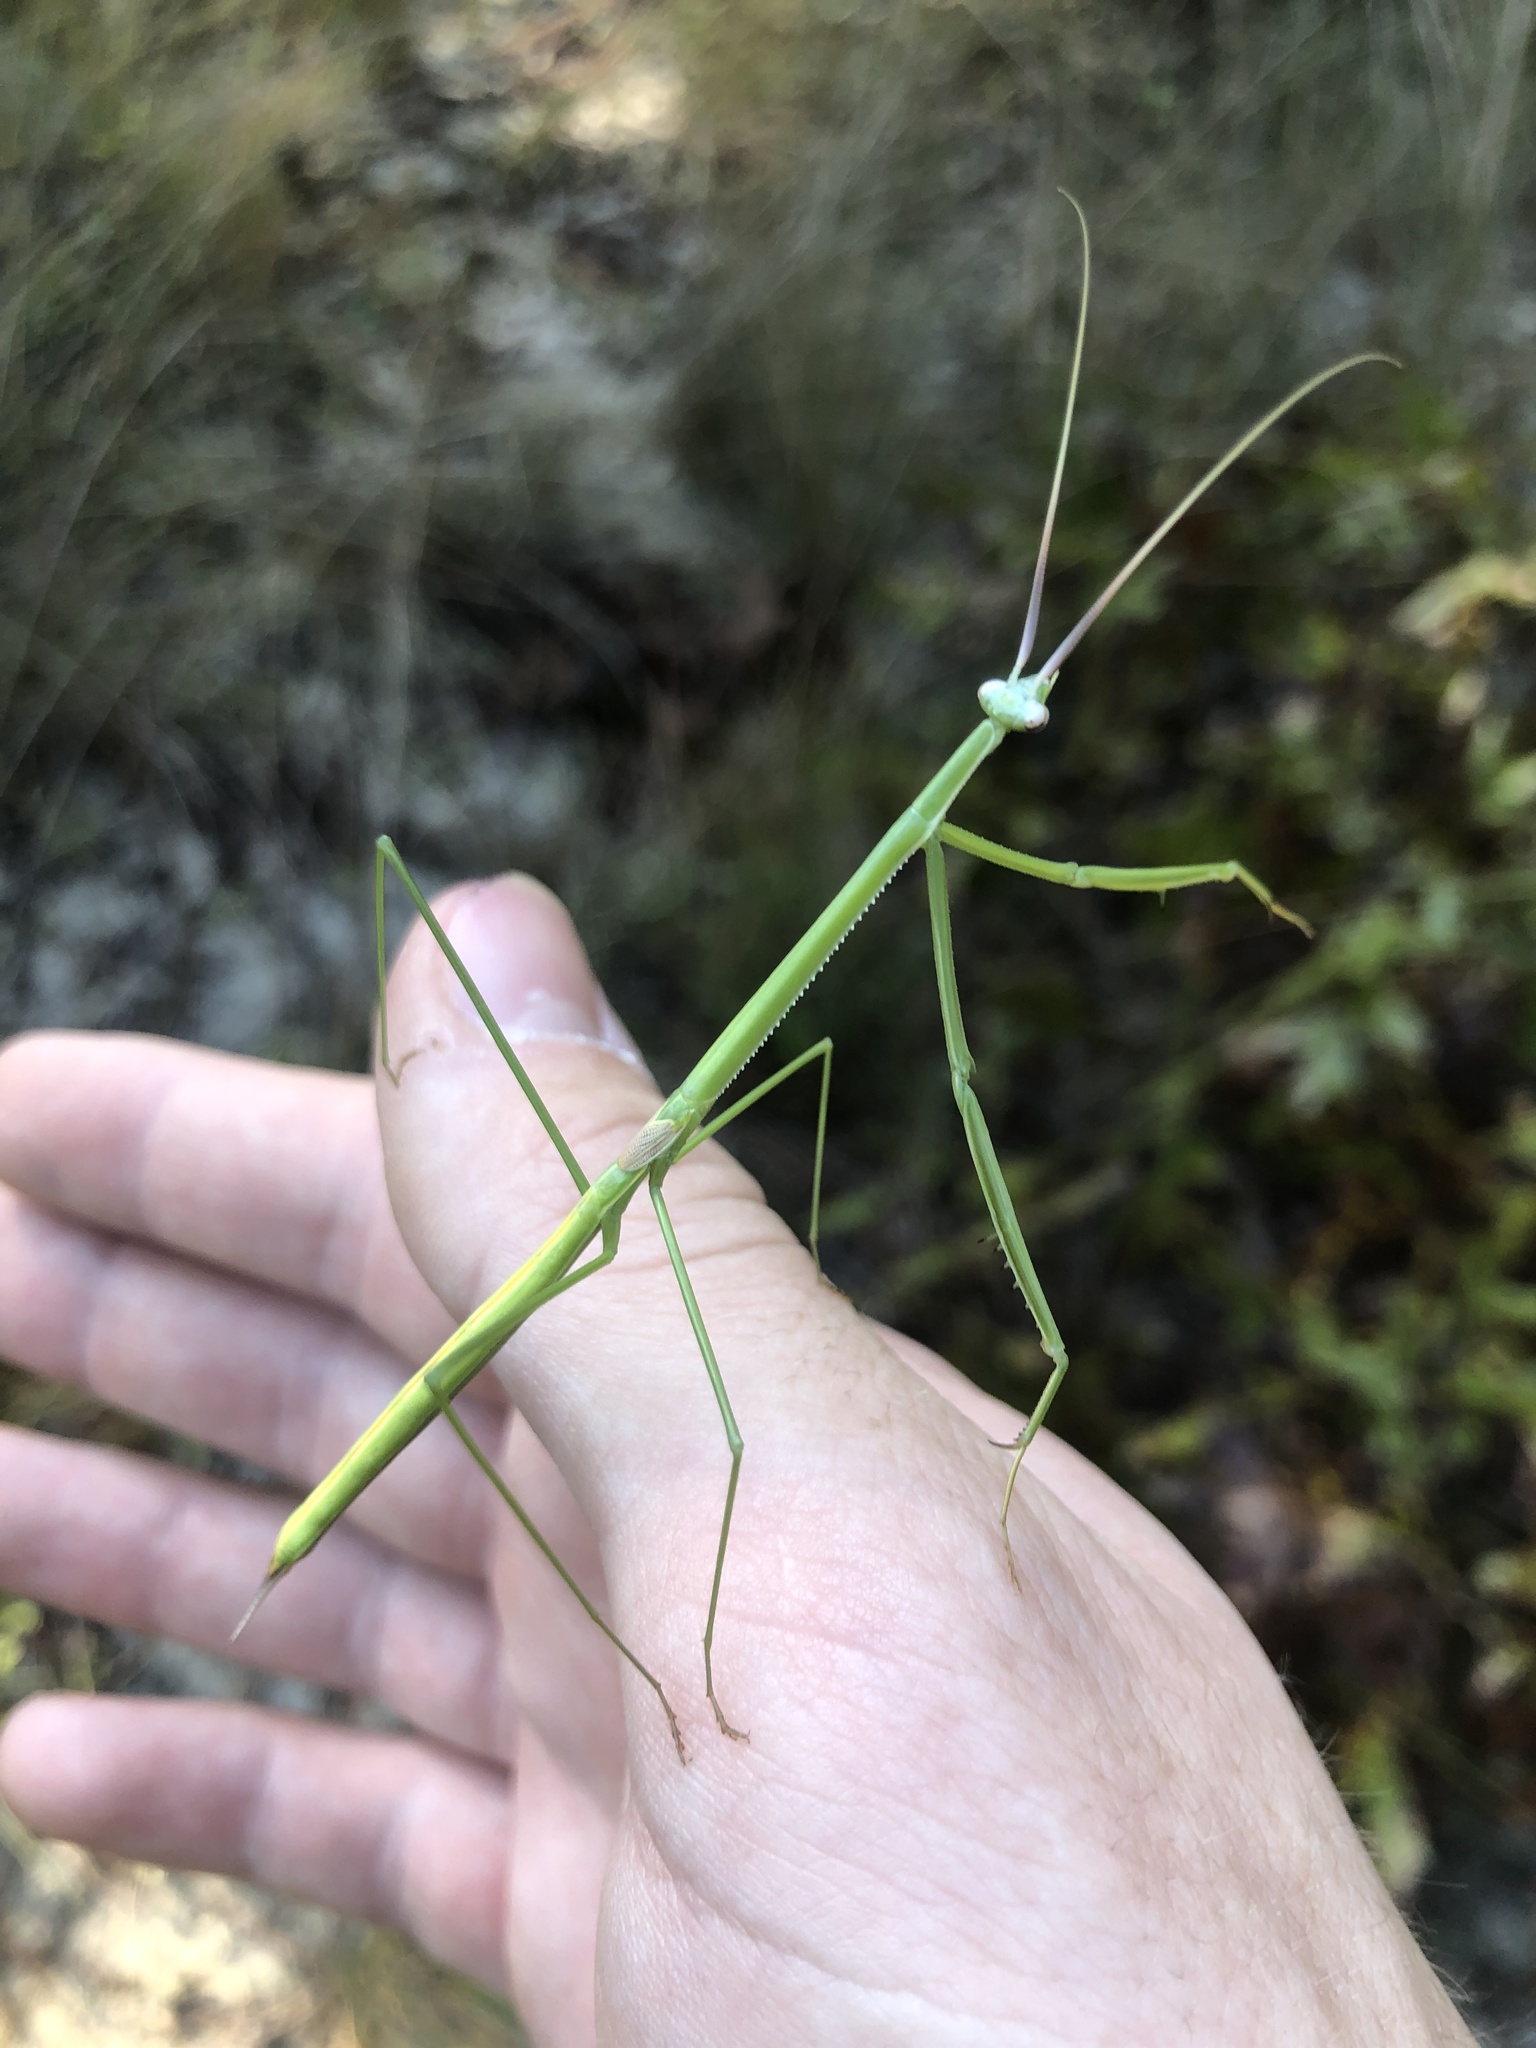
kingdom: Animalia
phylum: Arthropoda
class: Insecta
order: Mantodea
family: Coptopterygidae
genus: Brunneria
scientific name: Brunneria borealis
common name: Mantis
